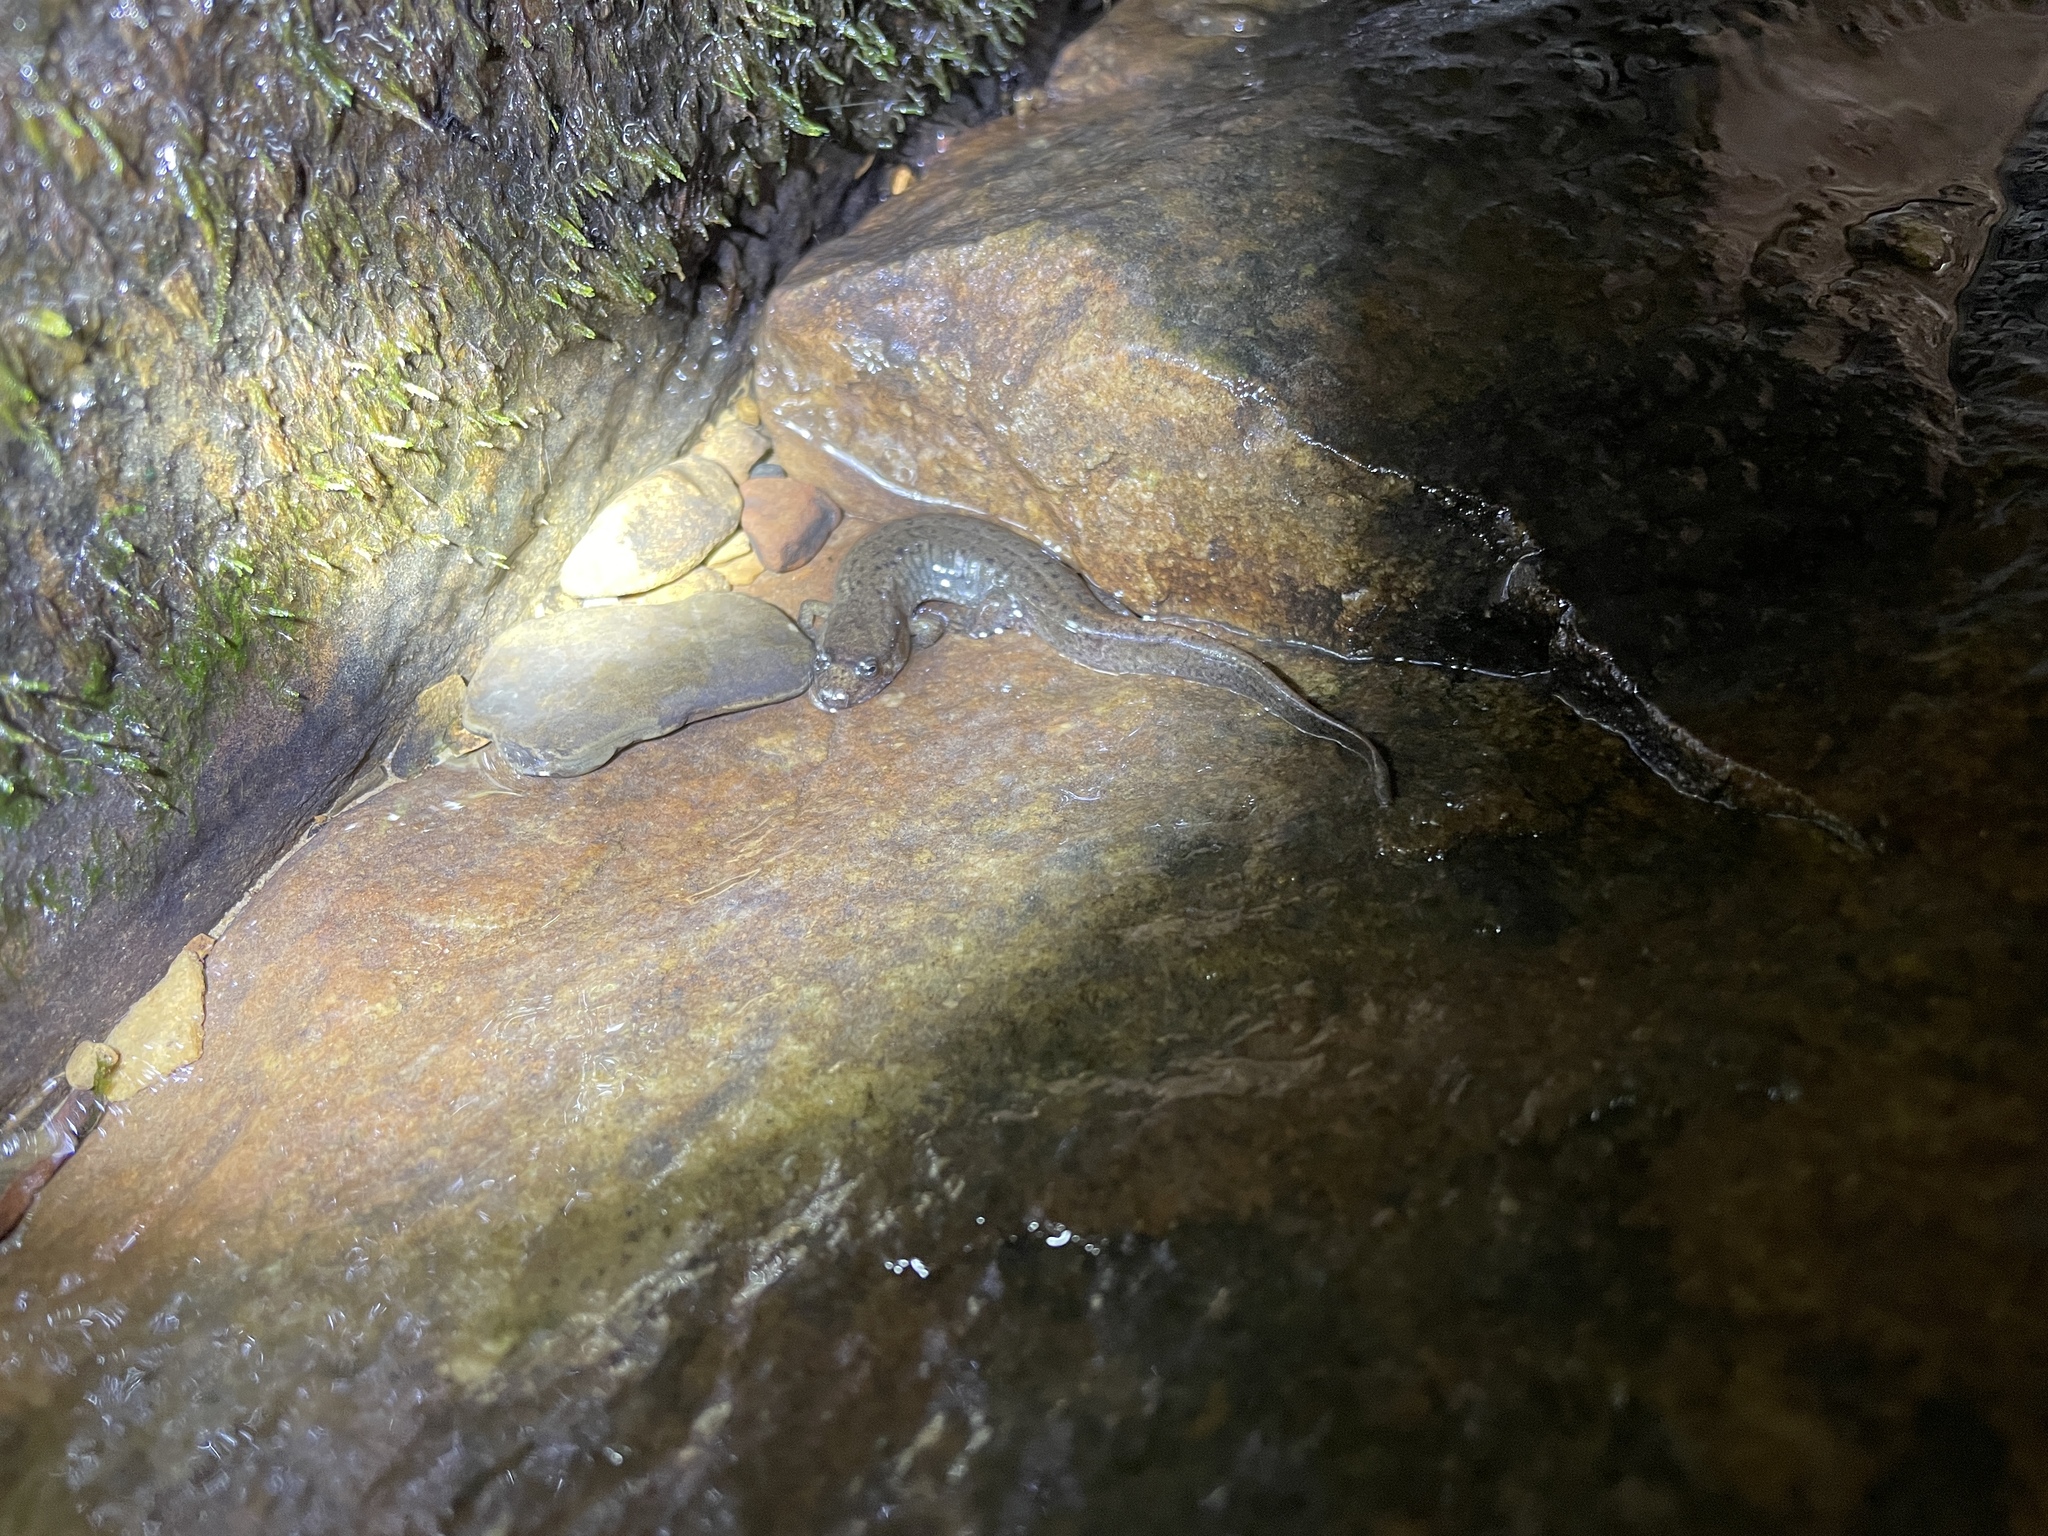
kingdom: Animalia
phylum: Chordata
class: Amphibia
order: Caudata
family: Plethodontidae
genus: Desmognathus
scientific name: Desmognathus conanti
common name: Spotted dusky salamander
